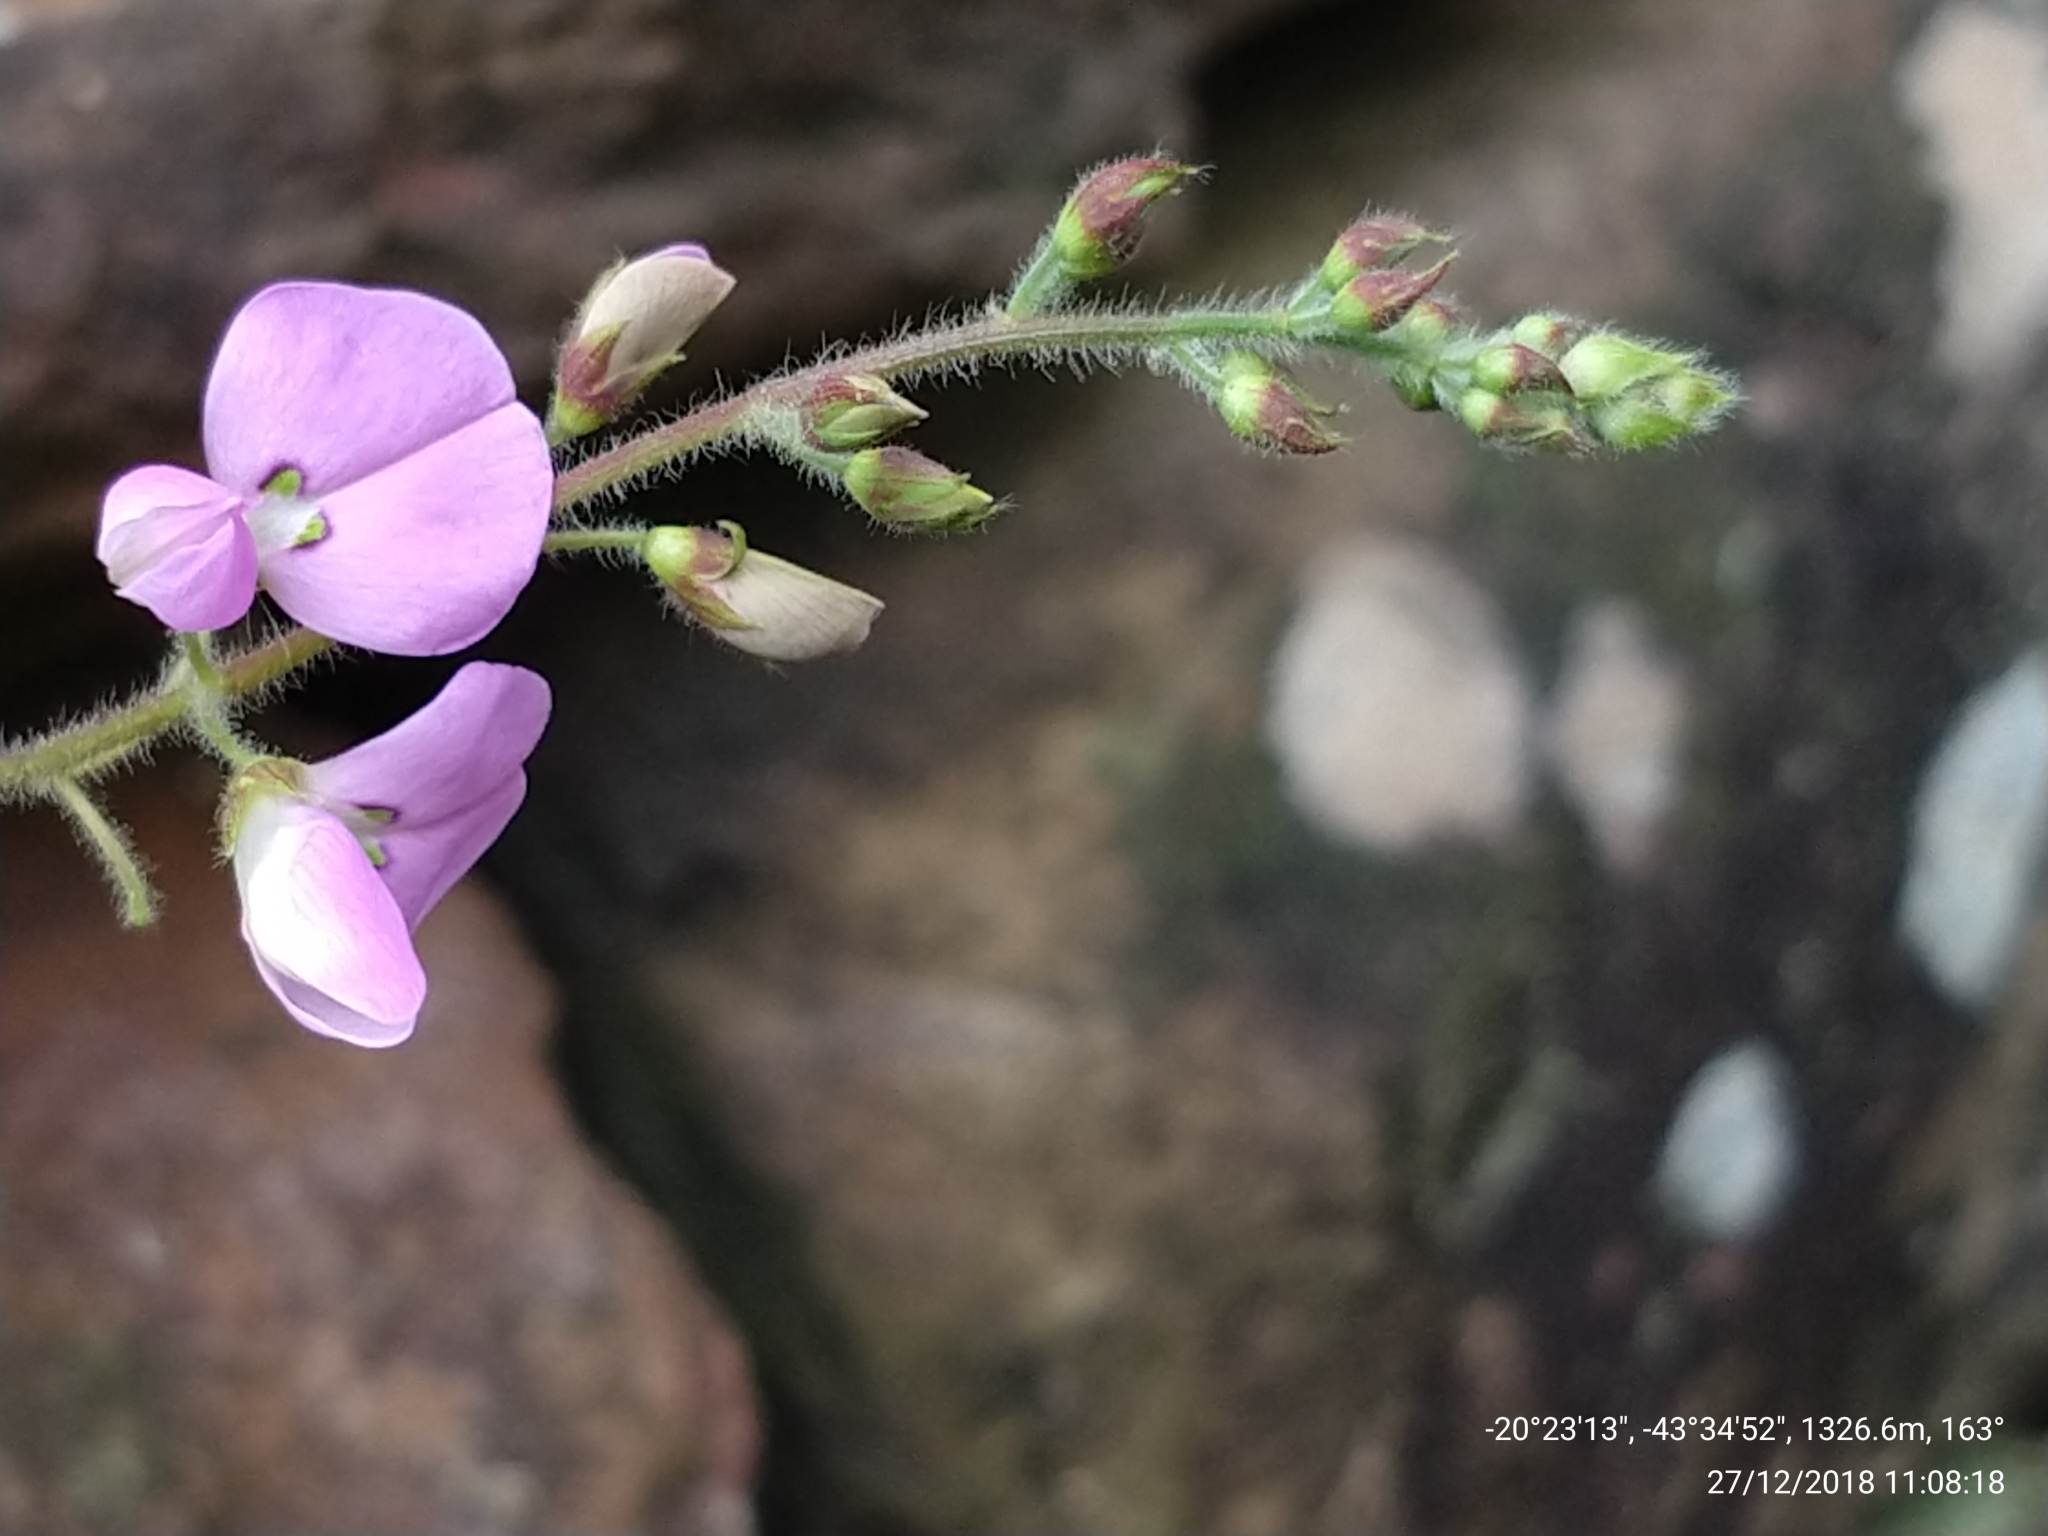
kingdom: Plantae
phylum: Tracheophyta
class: Magnoliopsida
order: Fabales
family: Fabaceae
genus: Desmodium
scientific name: Desmodium incanum
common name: Tickclover
